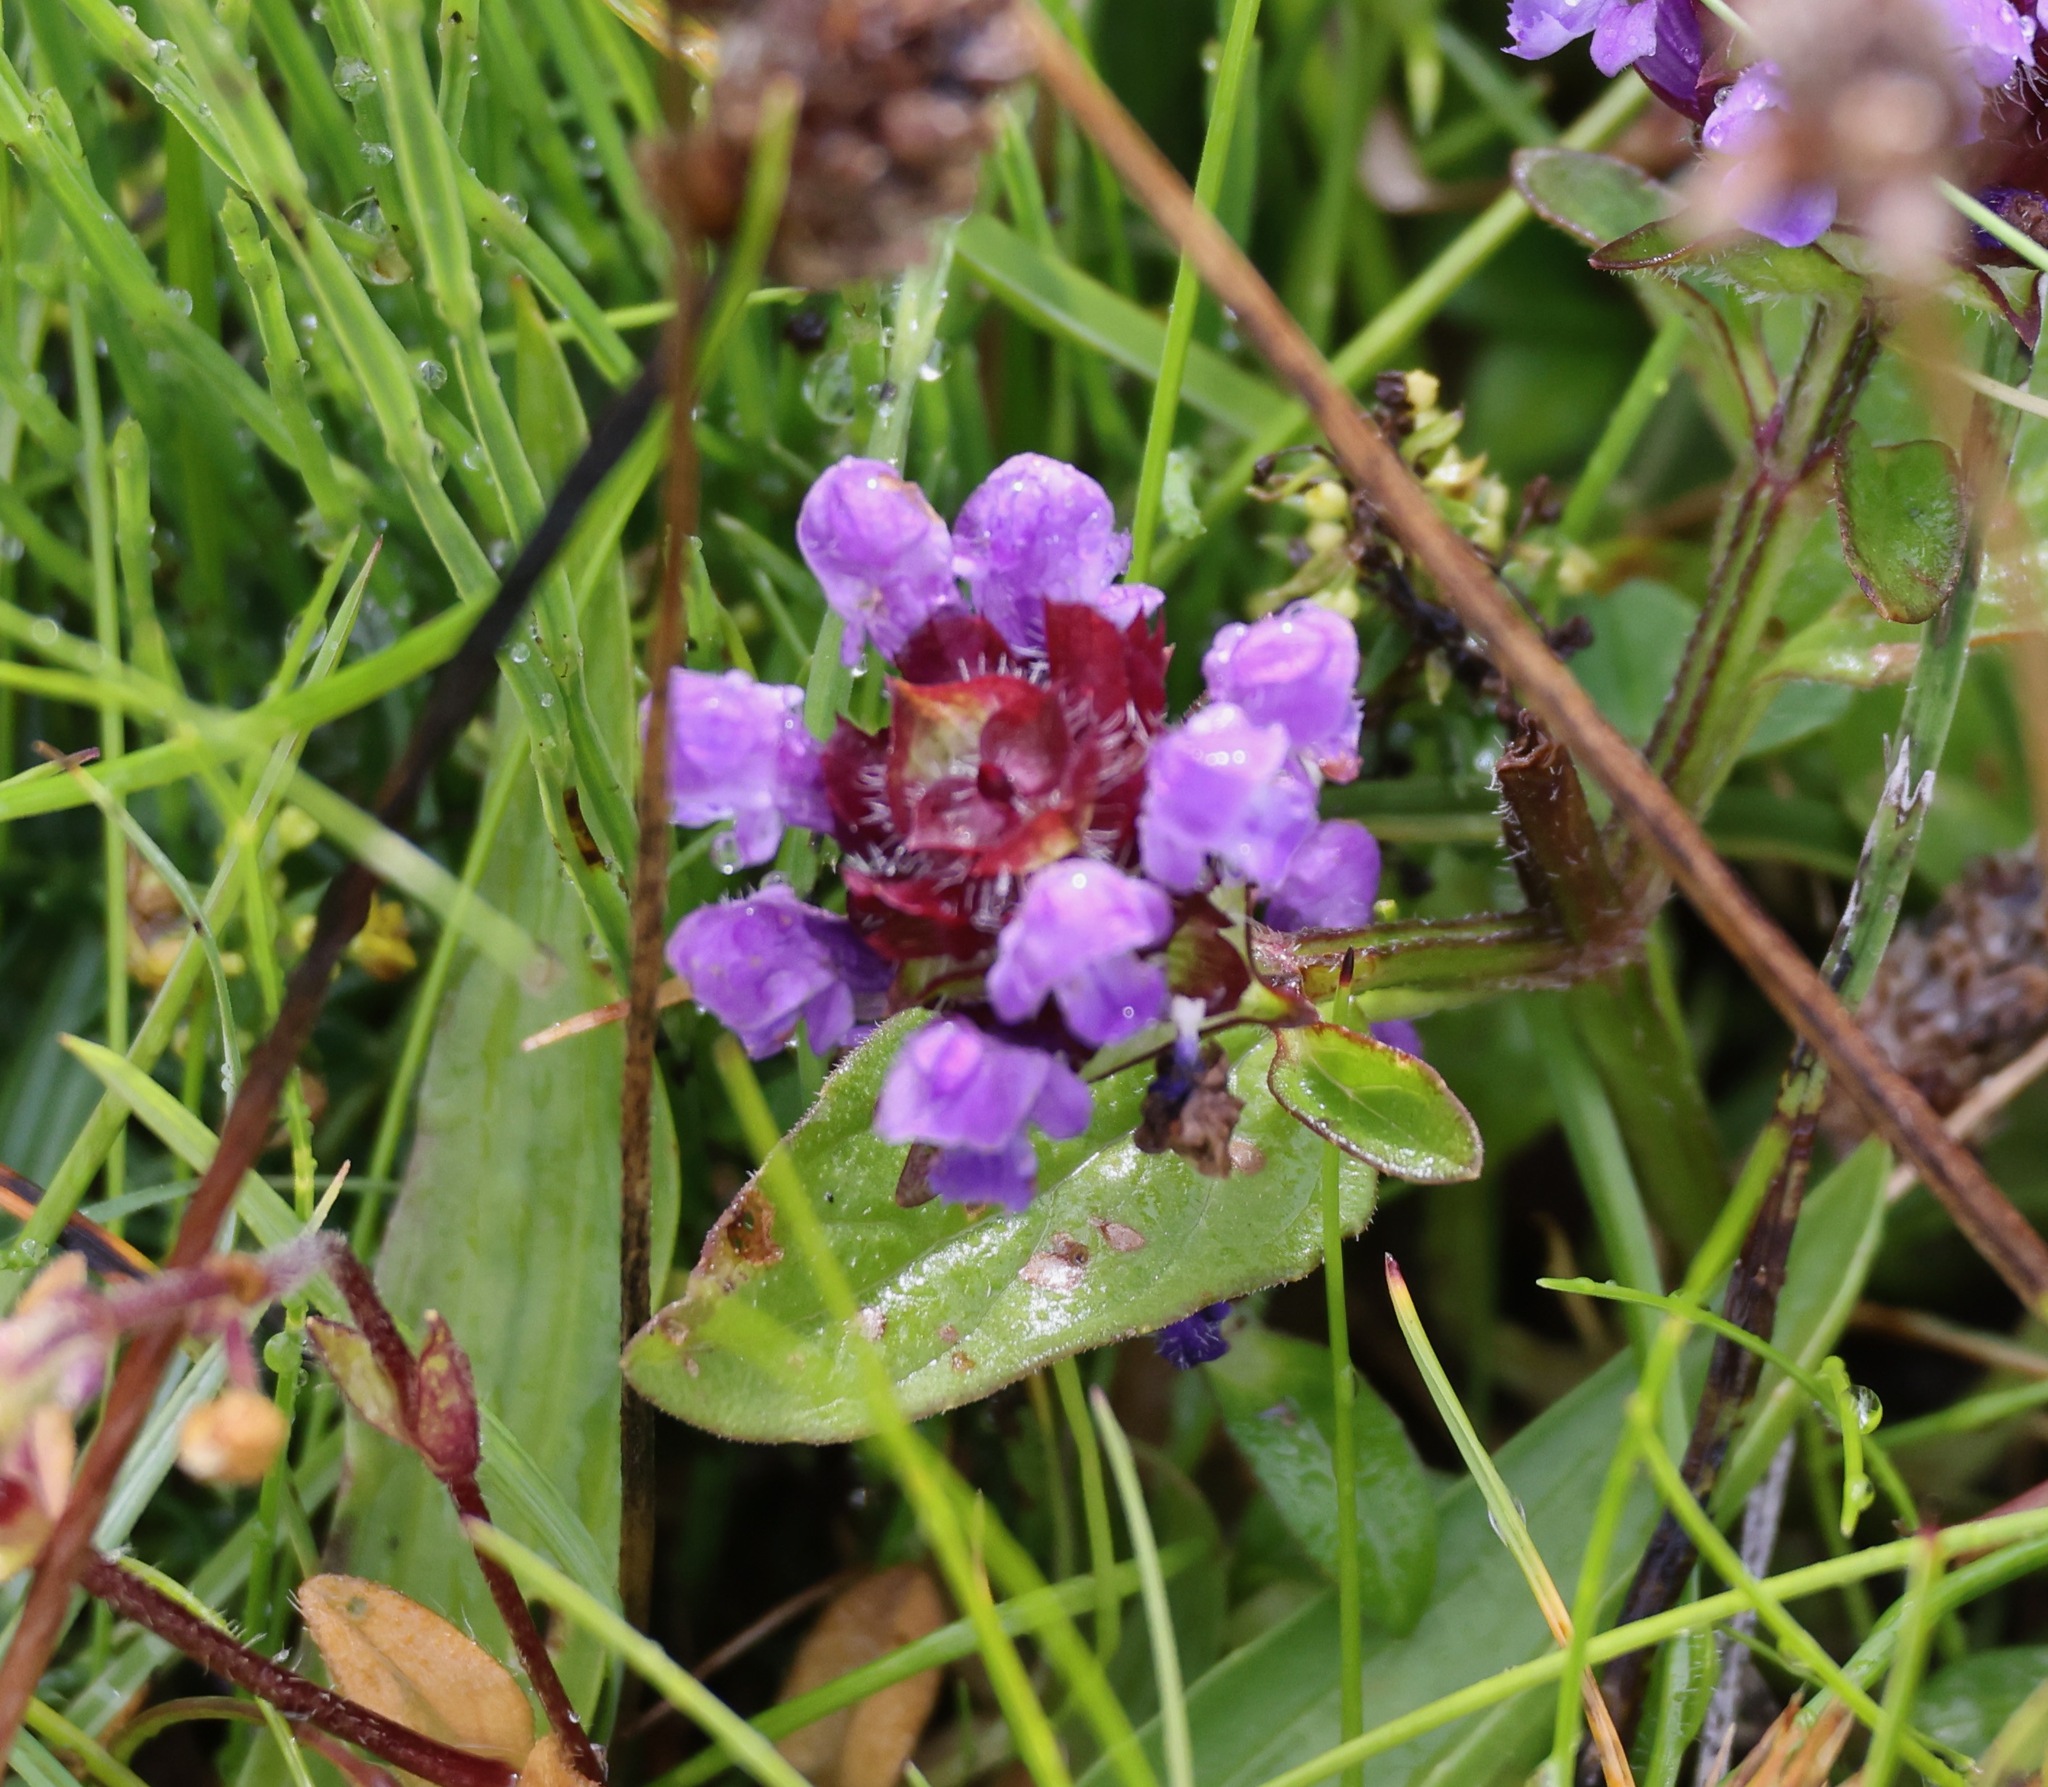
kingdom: Plantae
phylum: Tracheophyta
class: Magnoliopsida
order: Lamiales
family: Lamiaceae
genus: Prunella
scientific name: Prunella vulgaris
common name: Heal-all
